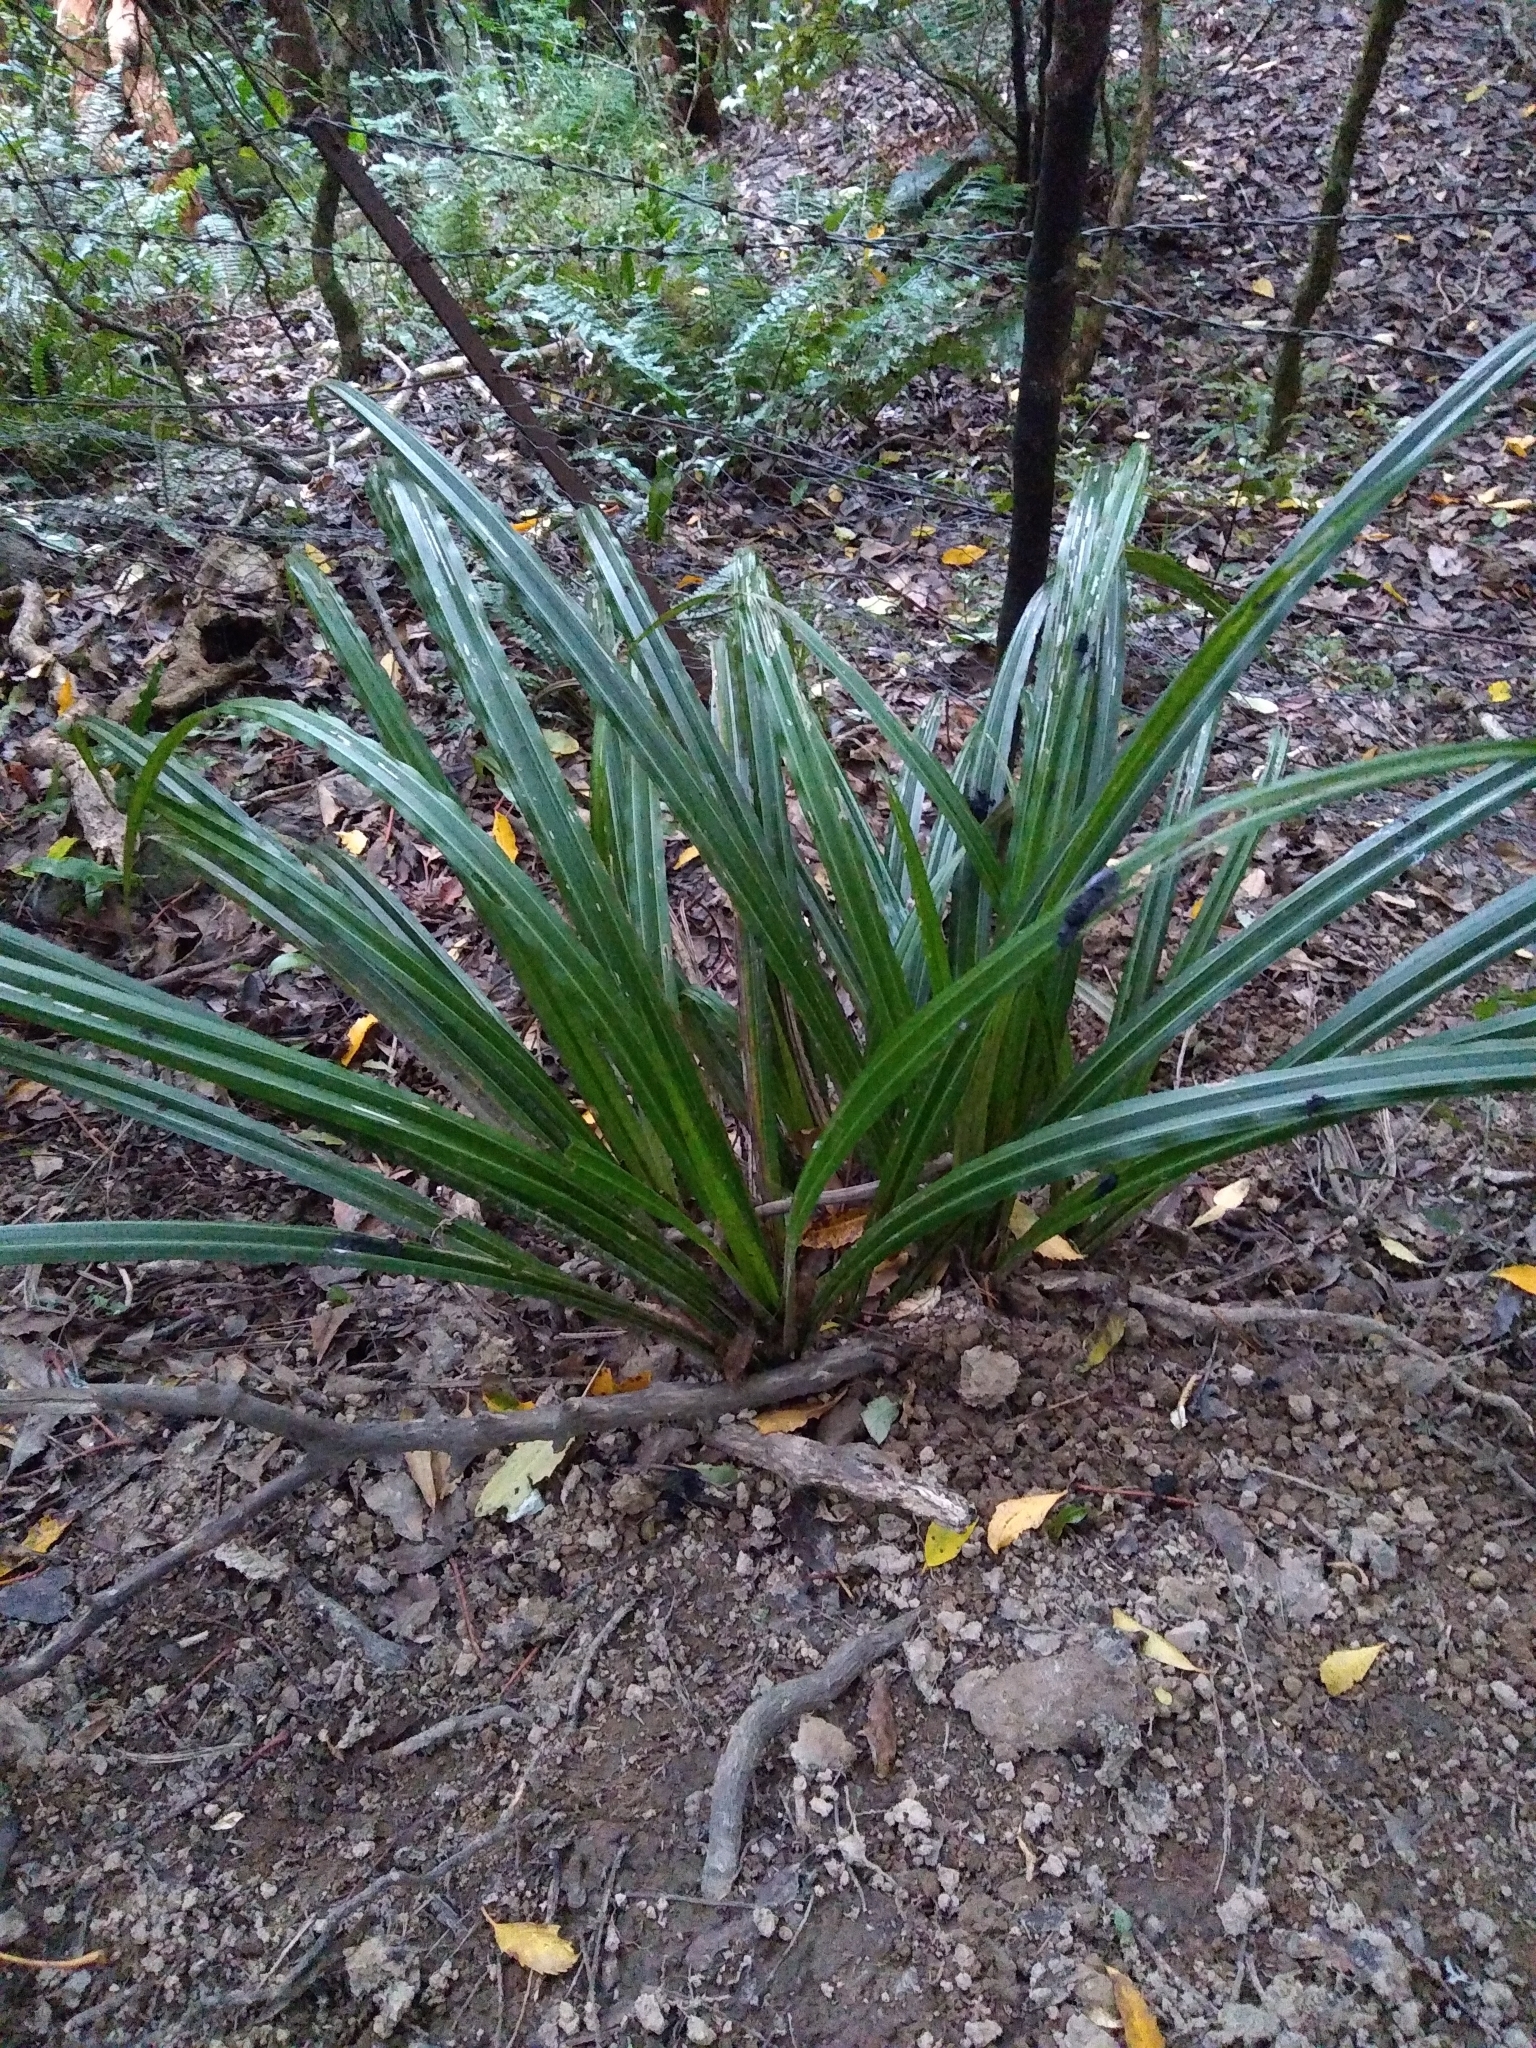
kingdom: Plantae
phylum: Tracheophyta
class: Liliopsida
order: Asparagales
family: Asteliaceae
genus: Astelia
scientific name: Astelia fragrans
